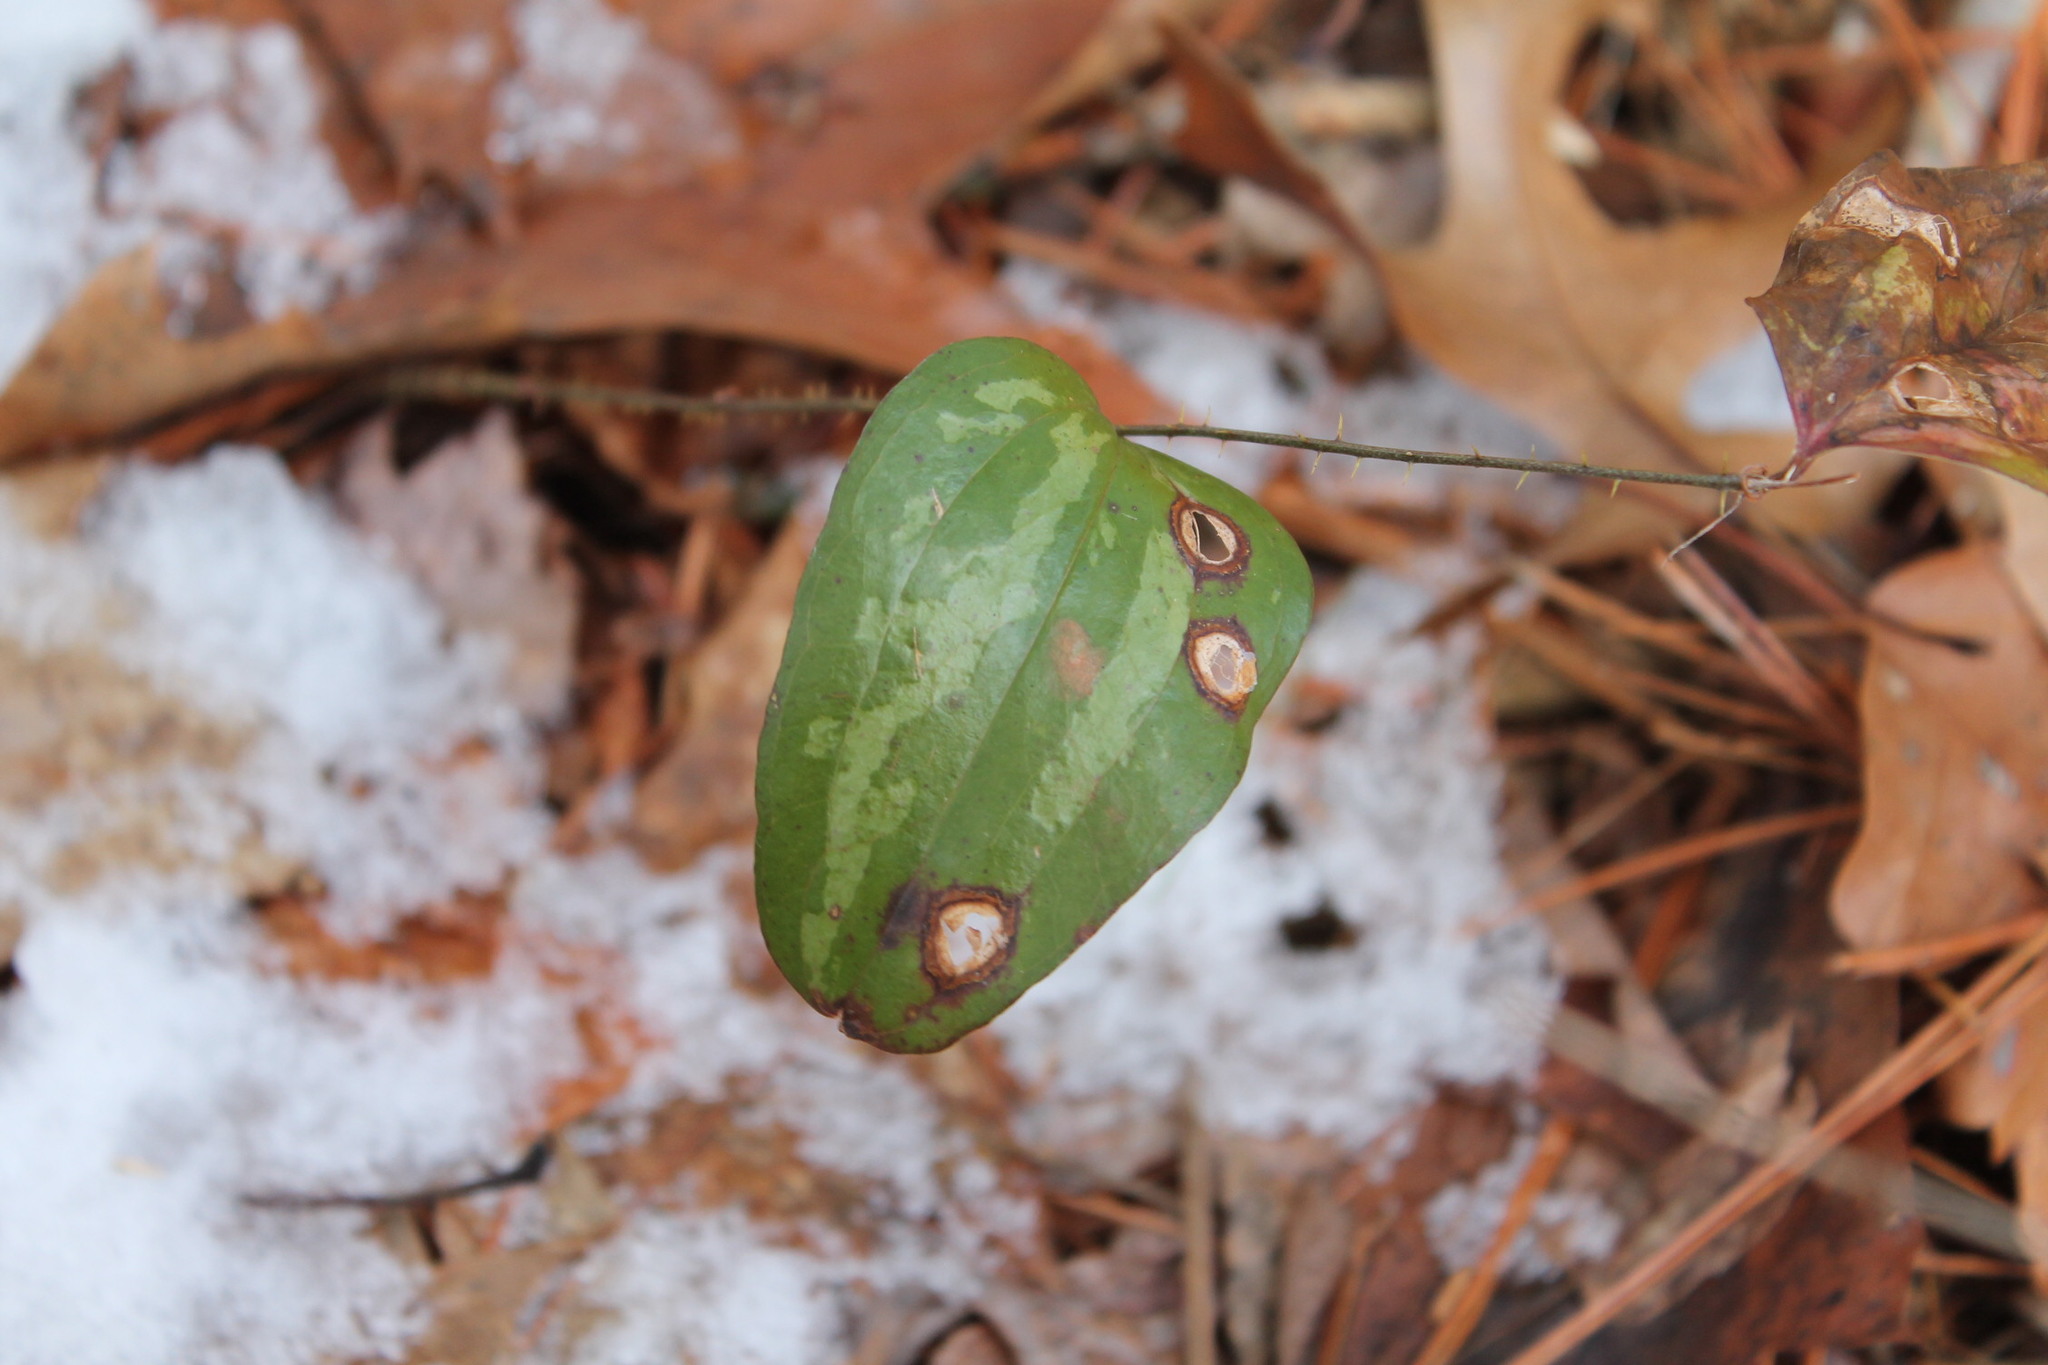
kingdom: Plantae
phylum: Tracheophyta
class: Liliopsida
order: Liliales
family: Smilacaceae
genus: Smilax
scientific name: Smilax glauca
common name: Cat greenbrier
